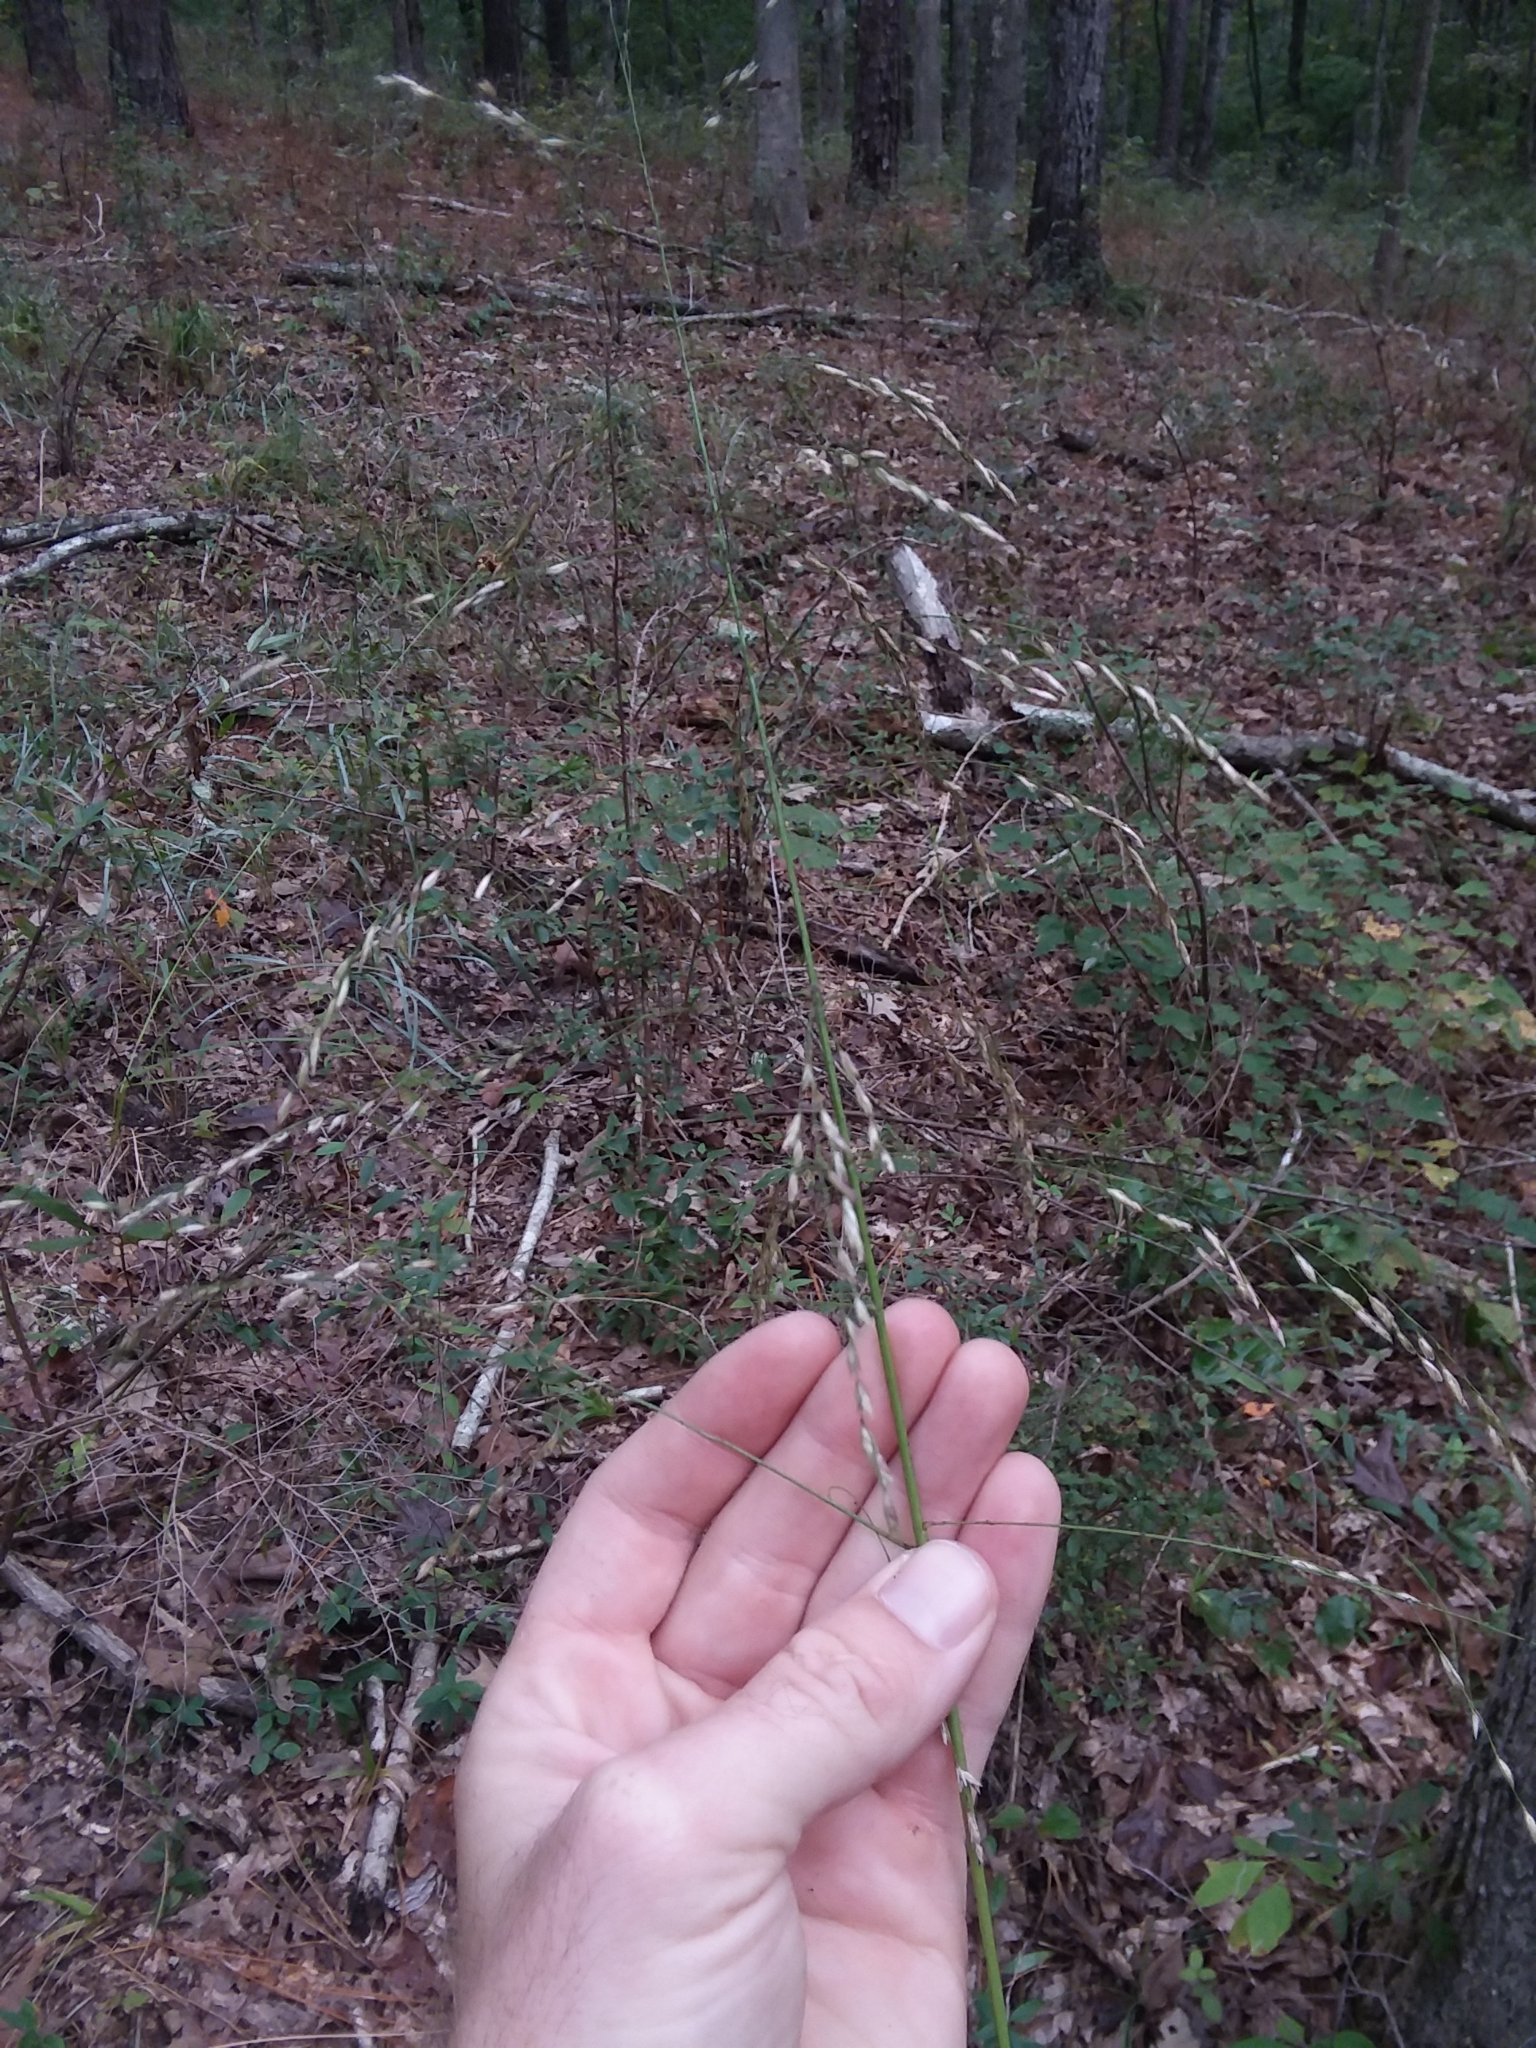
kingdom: Plantae
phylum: Tracheophyta
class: Liliopsida
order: Poales
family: Poaceae
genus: Tridens
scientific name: Tridens flavus
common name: Purpletop
